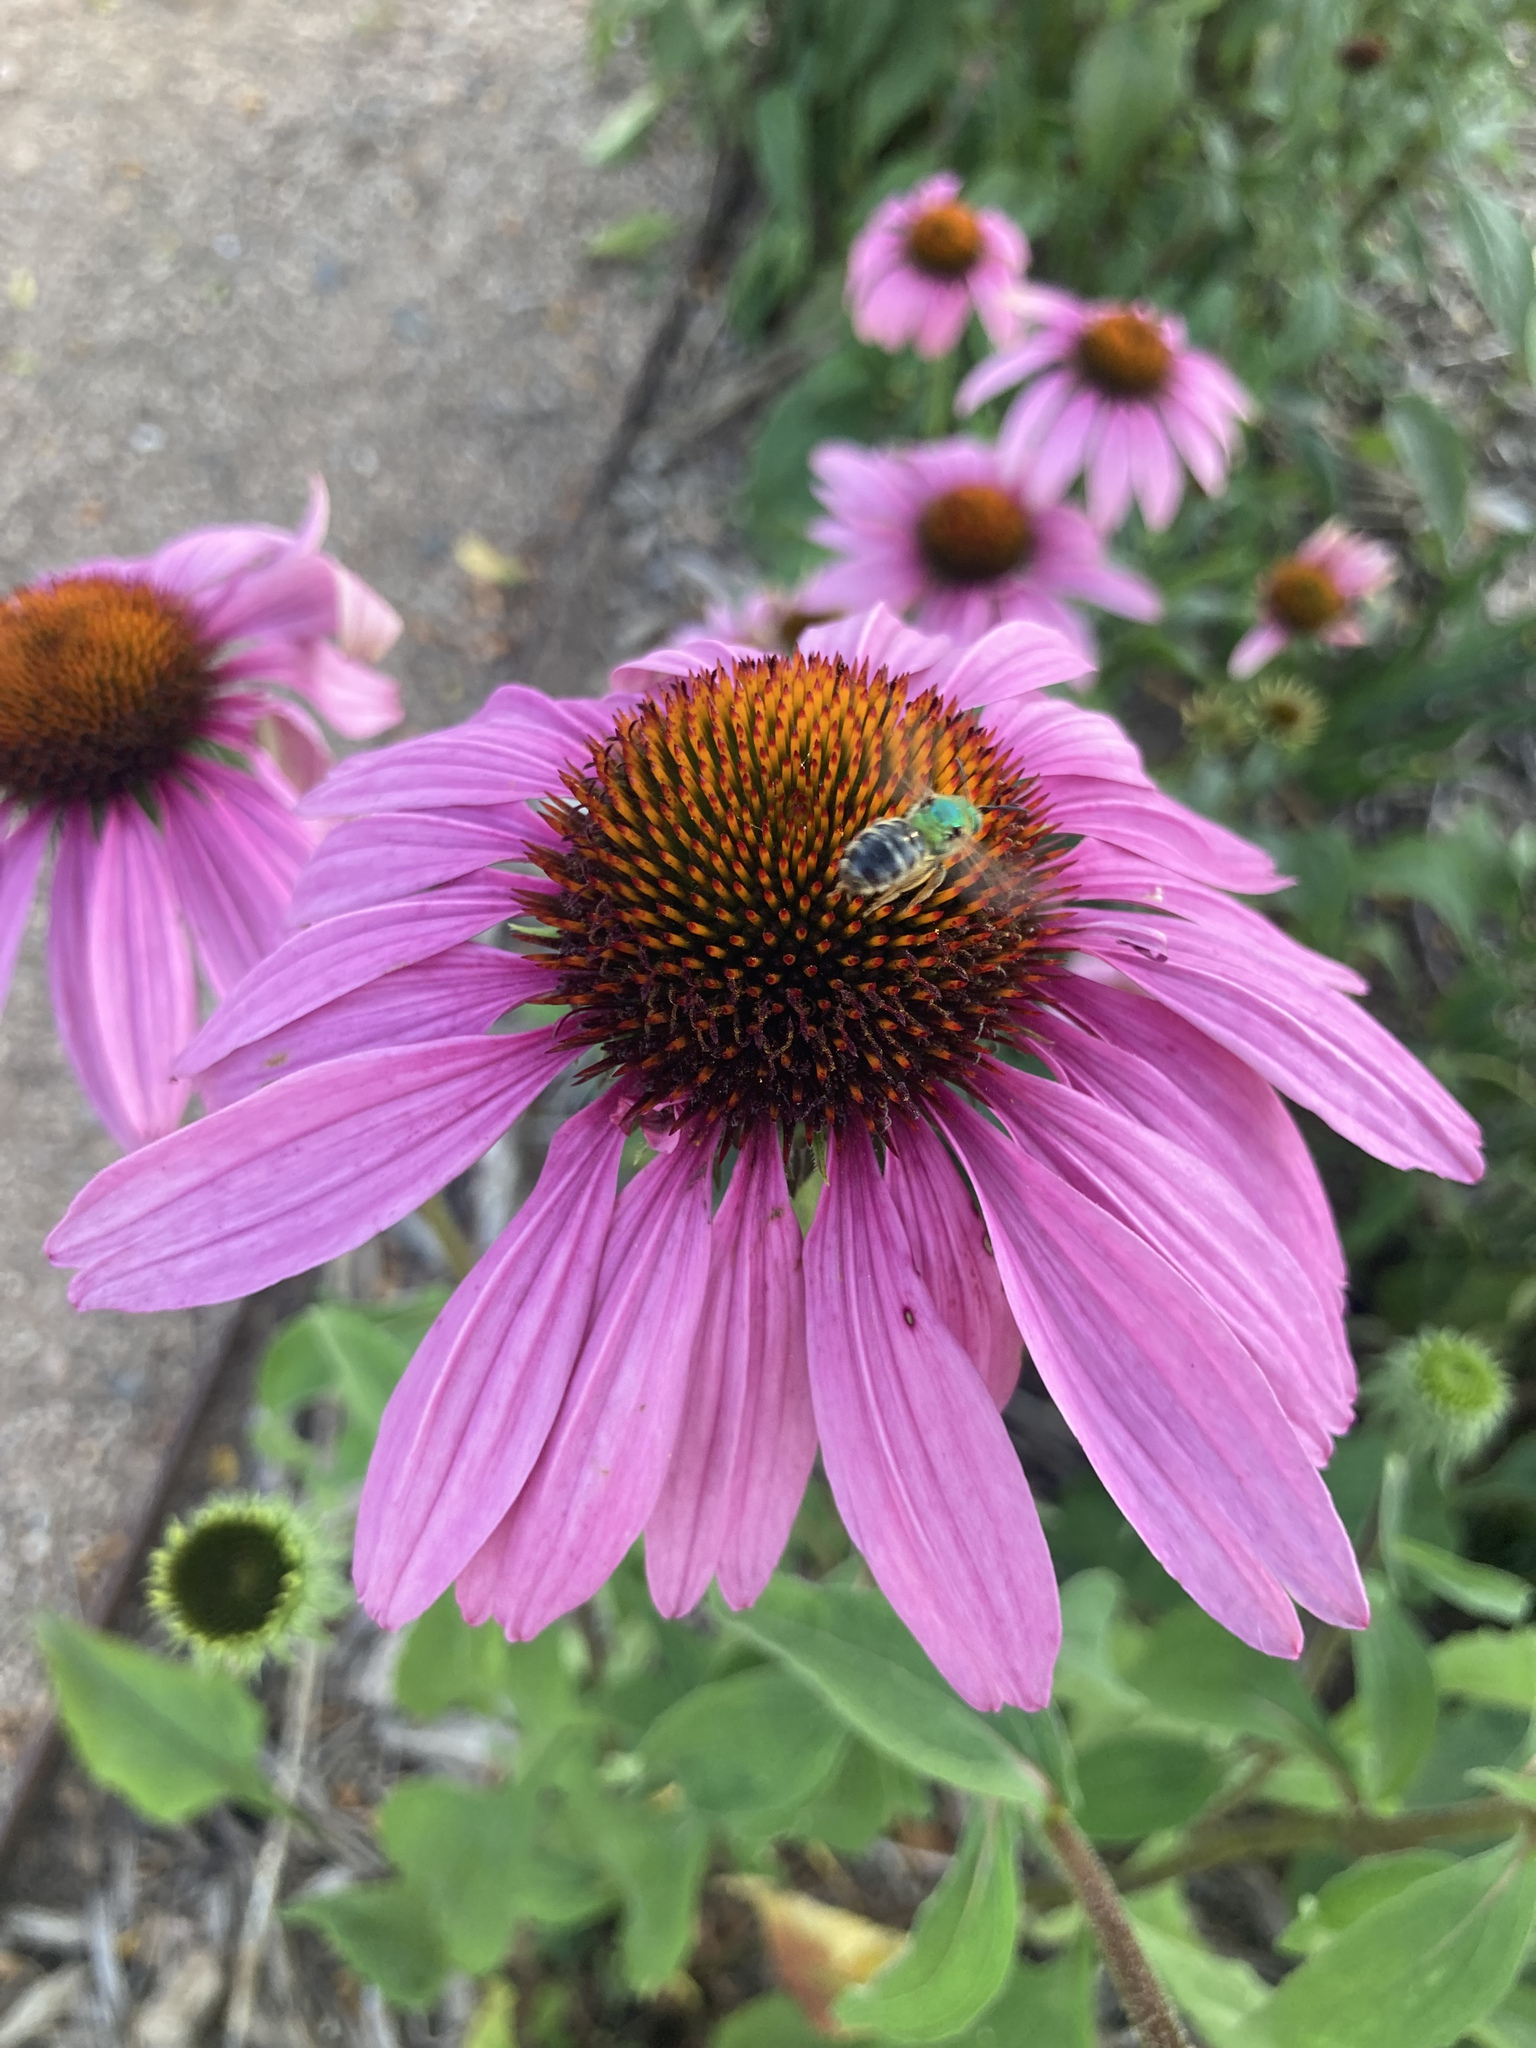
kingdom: Animalia
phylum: Arthropoda
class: Insecta
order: Hymenoptera
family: Halictidae
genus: Agapostemon
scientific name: Agapostemon virescens
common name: Bicolored striped sweat bee
